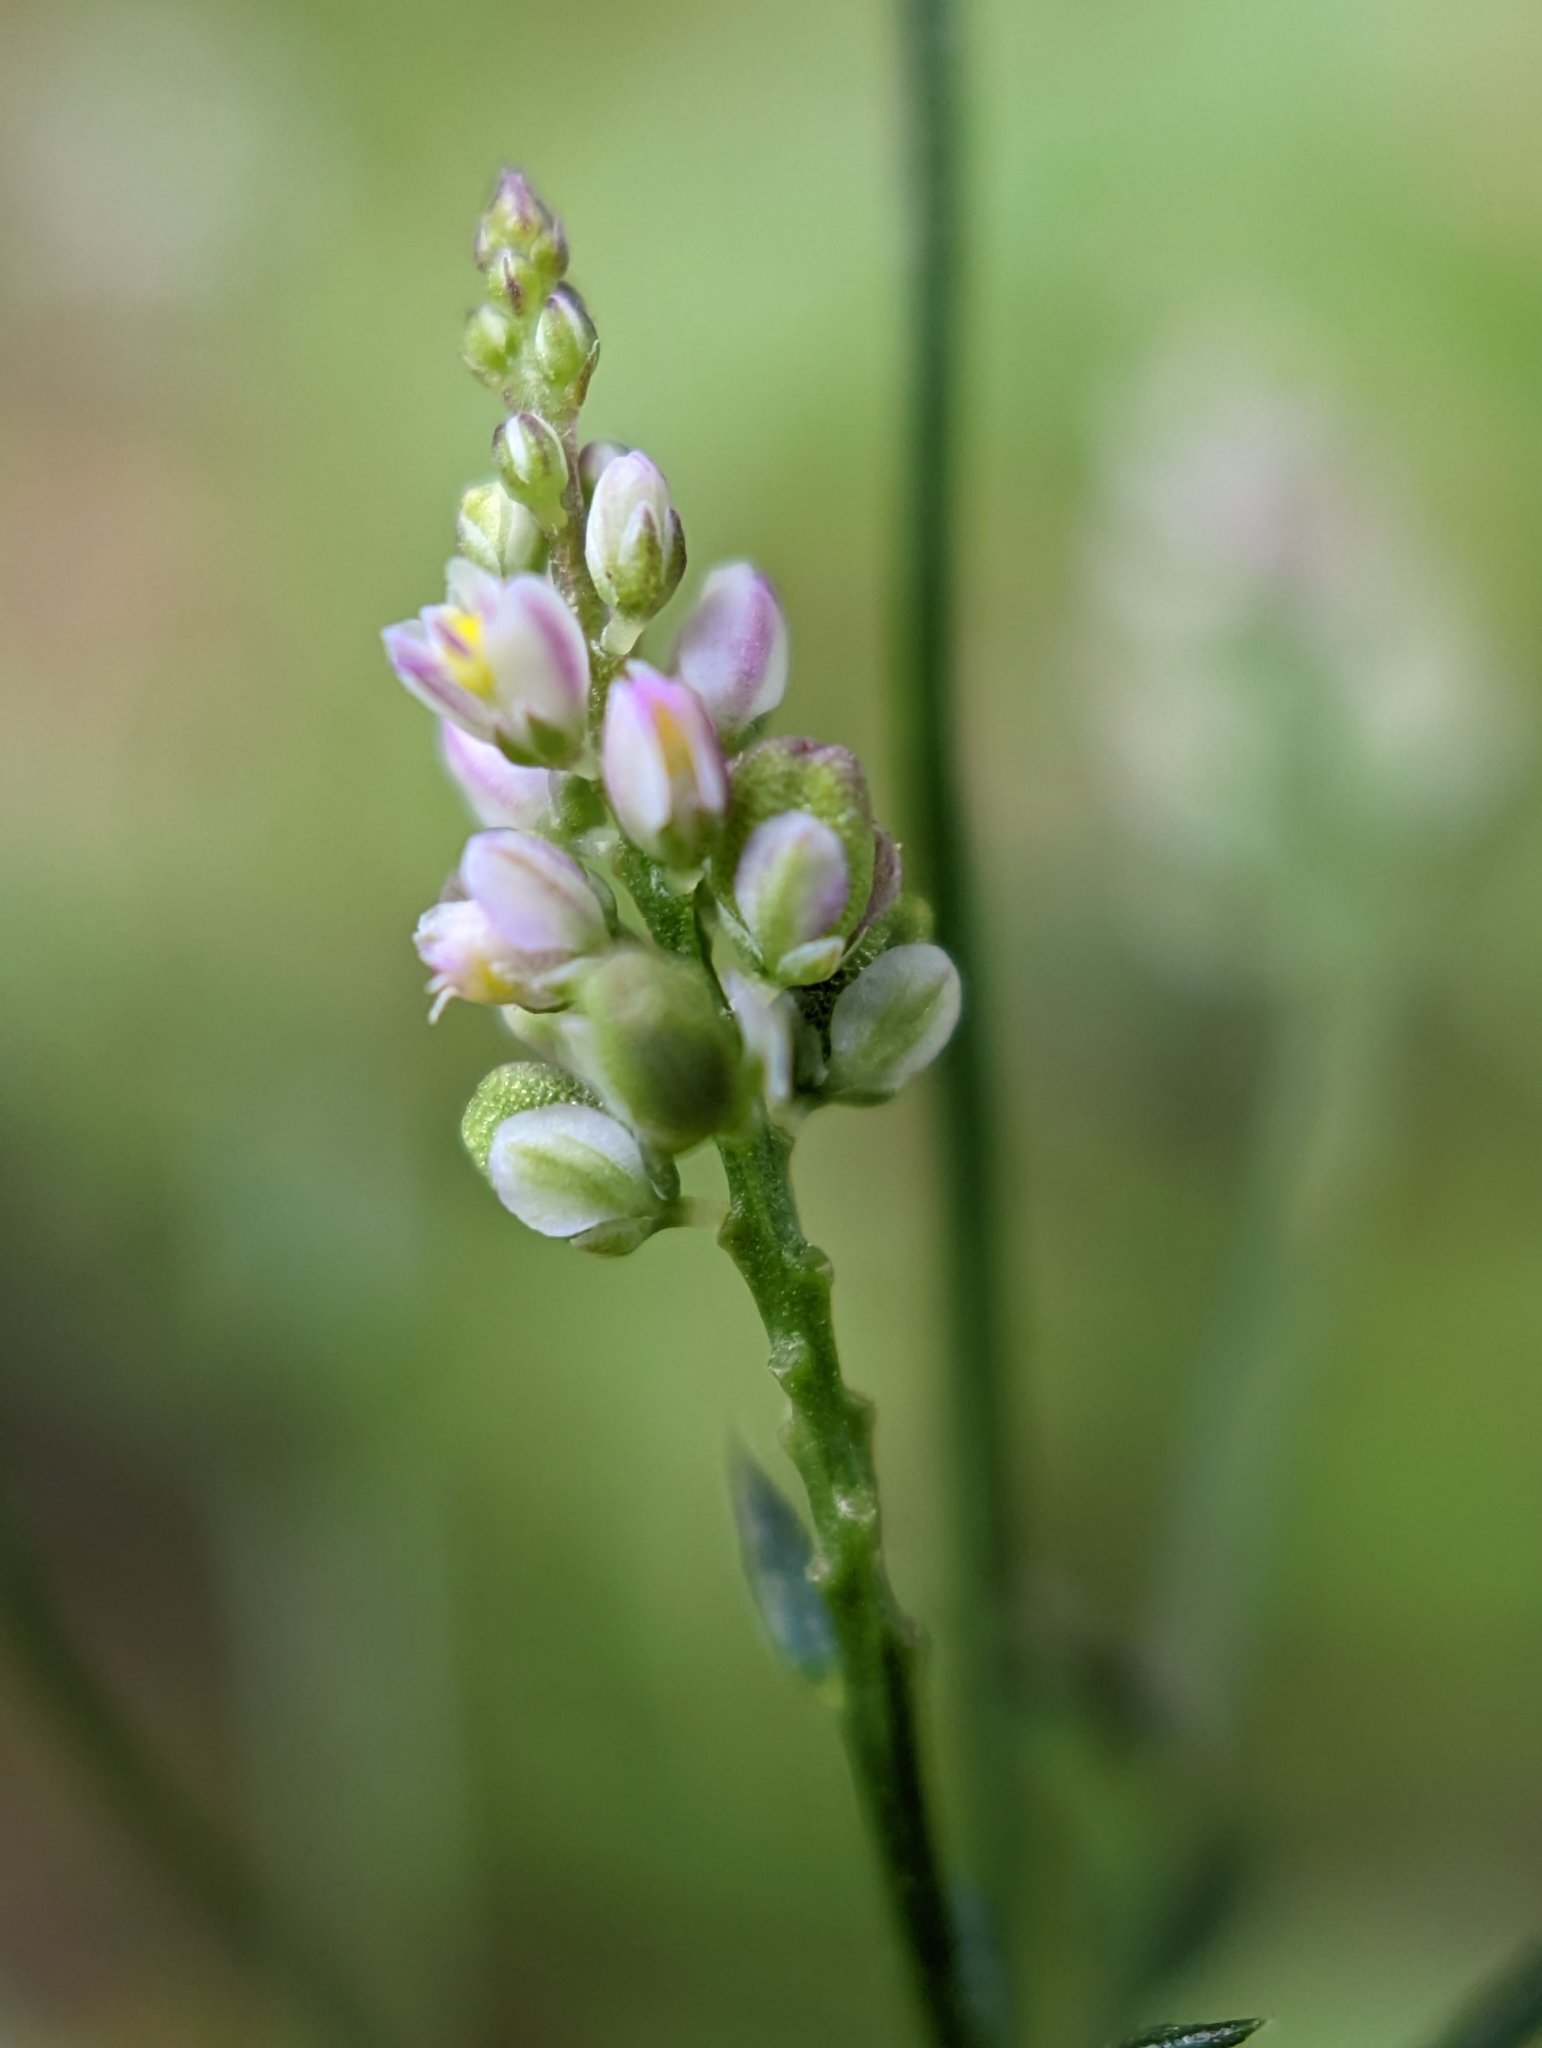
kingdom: Plantae
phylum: Tracheophyta
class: Magnoliopsida
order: Fabales
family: Polygalaceae
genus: Polygala
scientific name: Polygala verticillata
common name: Whorl milkwort
